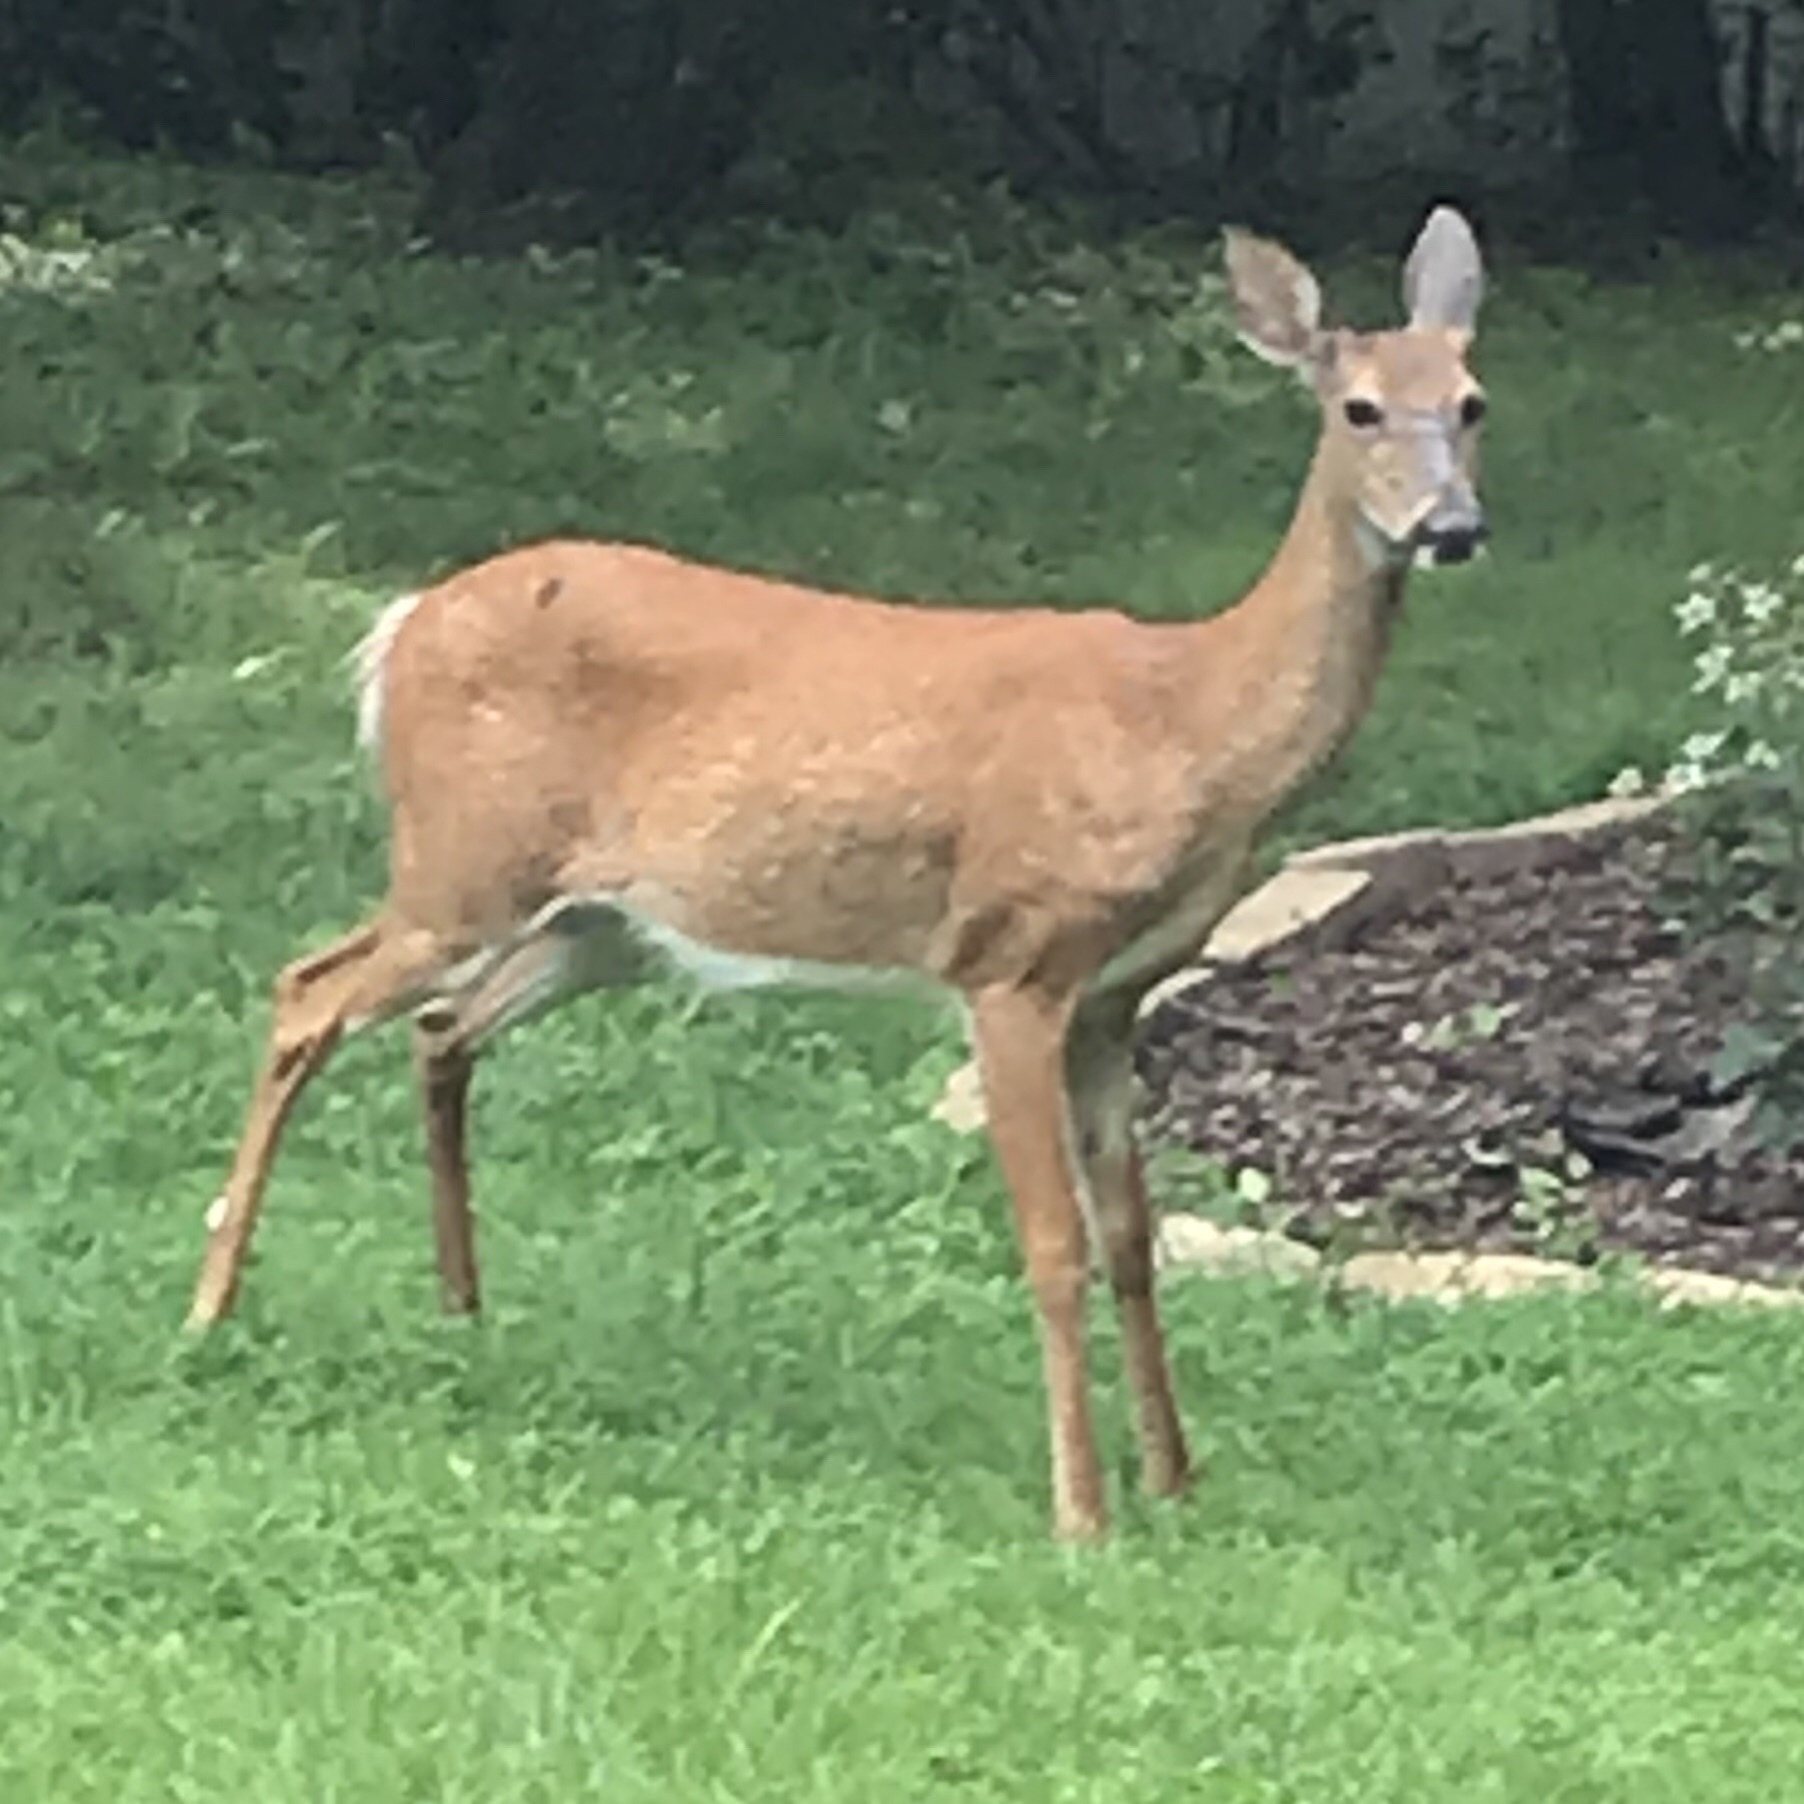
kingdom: Animalia
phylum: Chordata
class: Mammalia
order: Artiodactyla
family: Cervidae
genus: Odocoileus
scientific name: Odocoileus virginianus
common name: White-tailed deer
